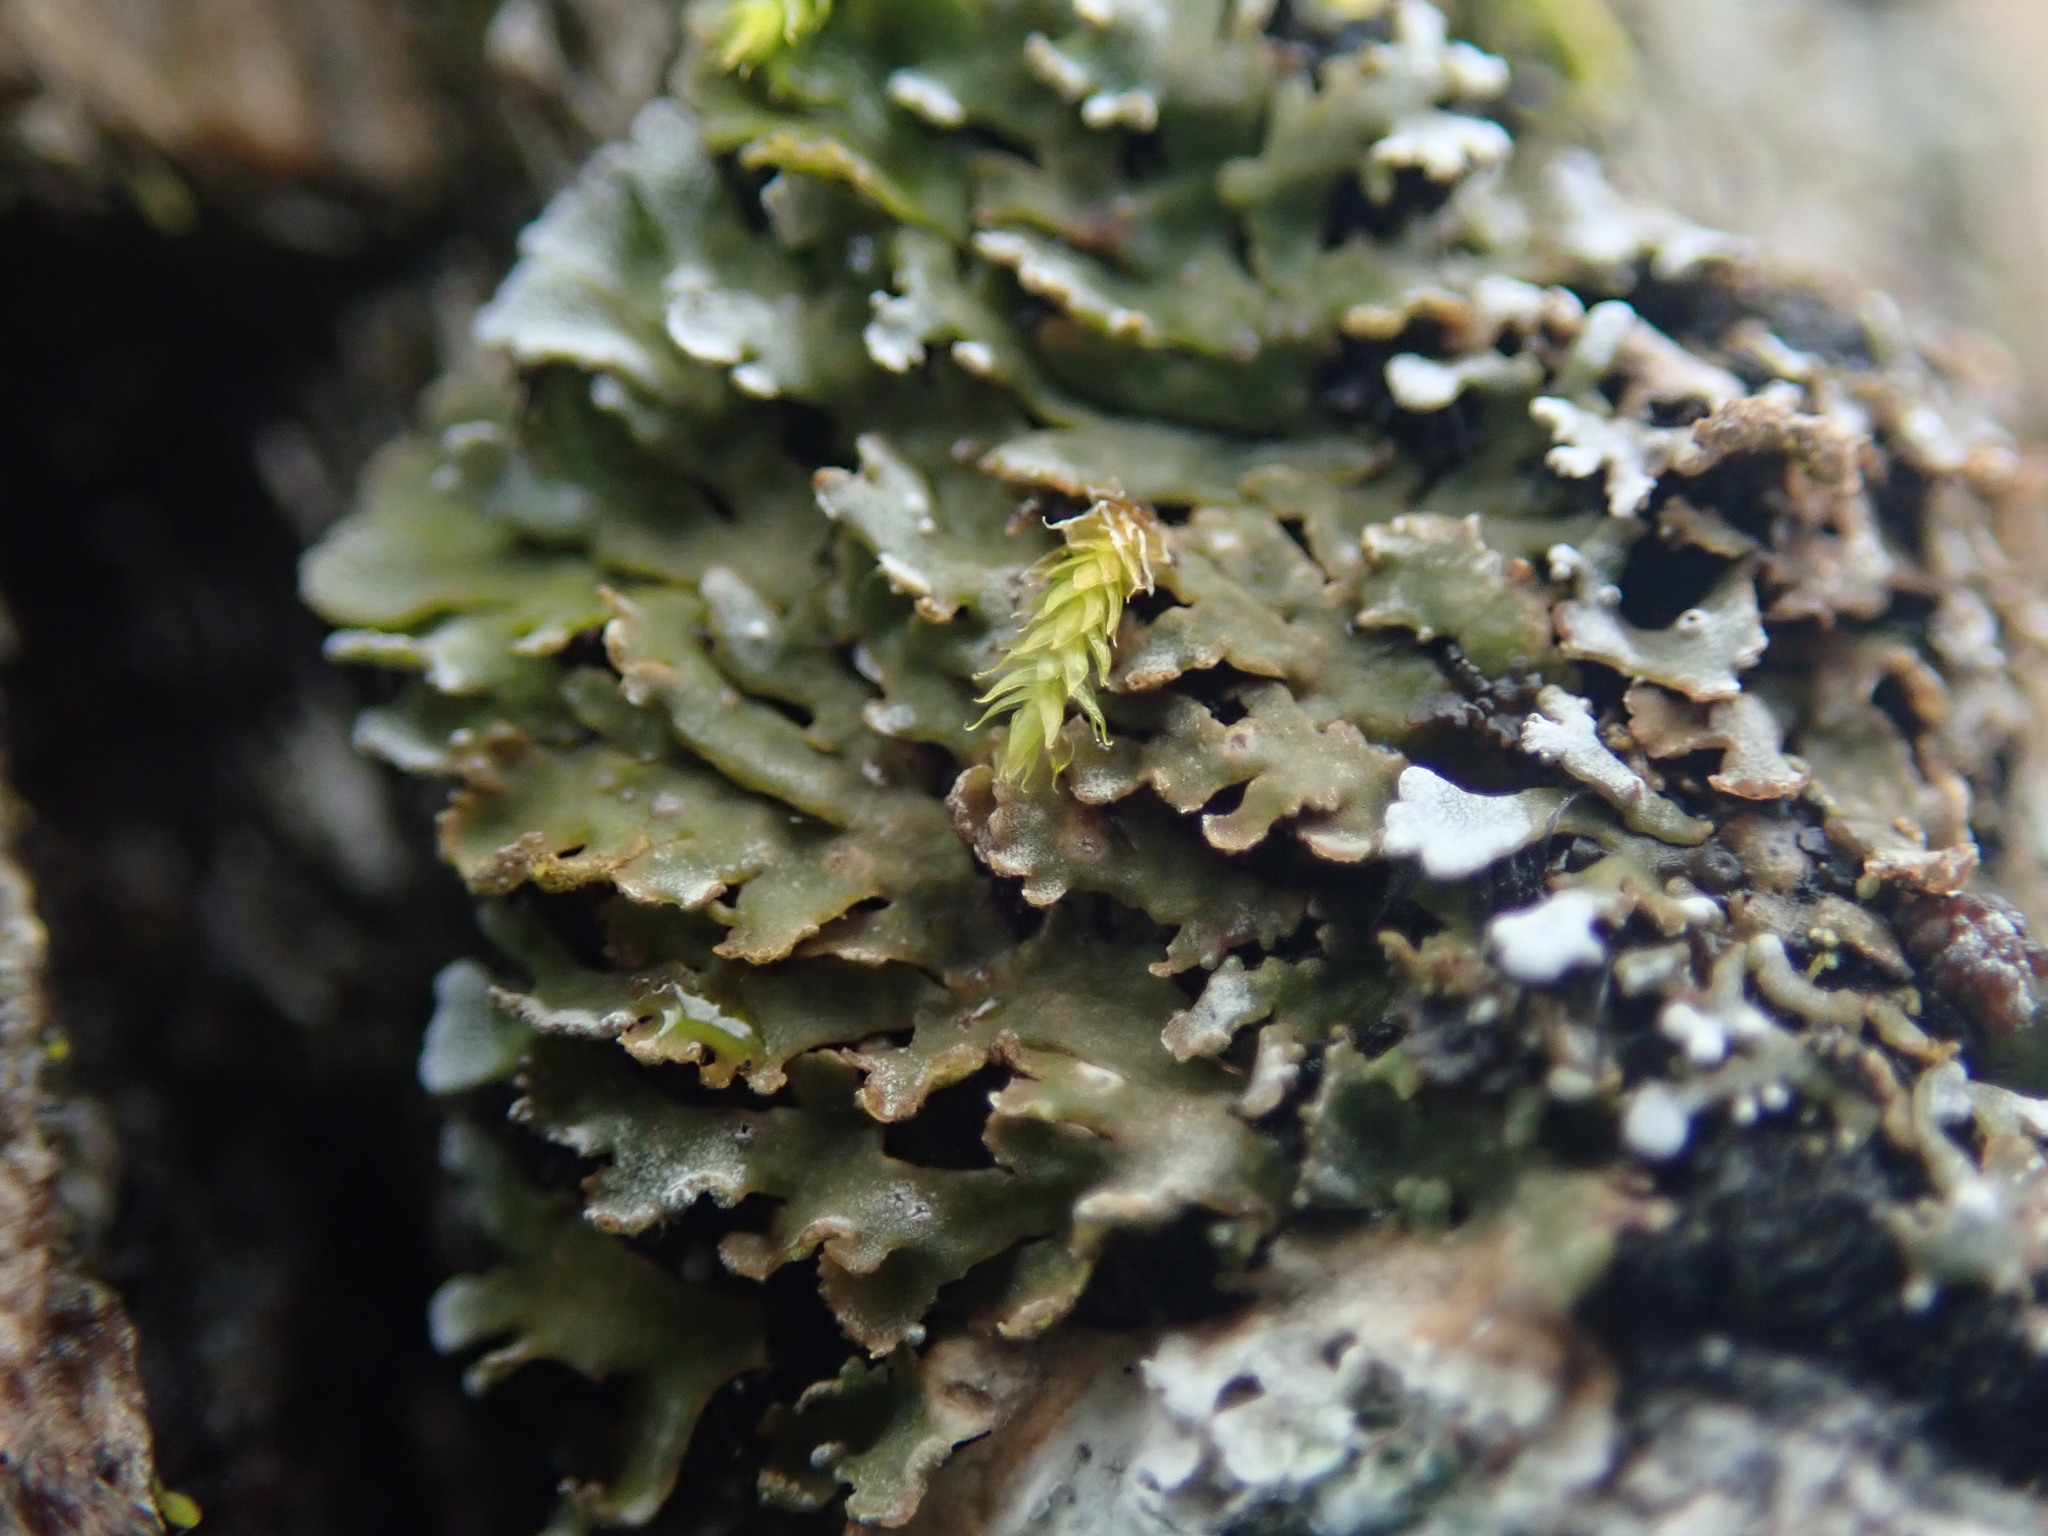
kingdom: Fungi
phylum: Ascomycota
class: Lecanoromycetes
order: Caliciales
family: Physciaceae
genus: Physconia
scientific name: Physconia perisidiosa
